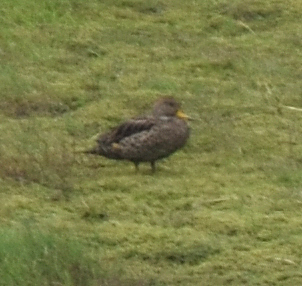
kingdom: Animalia
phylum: Chordata
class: Aves
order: Anseriformes
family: Anatidae
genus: Anas
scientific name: Anas georgica
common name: Yellow-billed pintail
